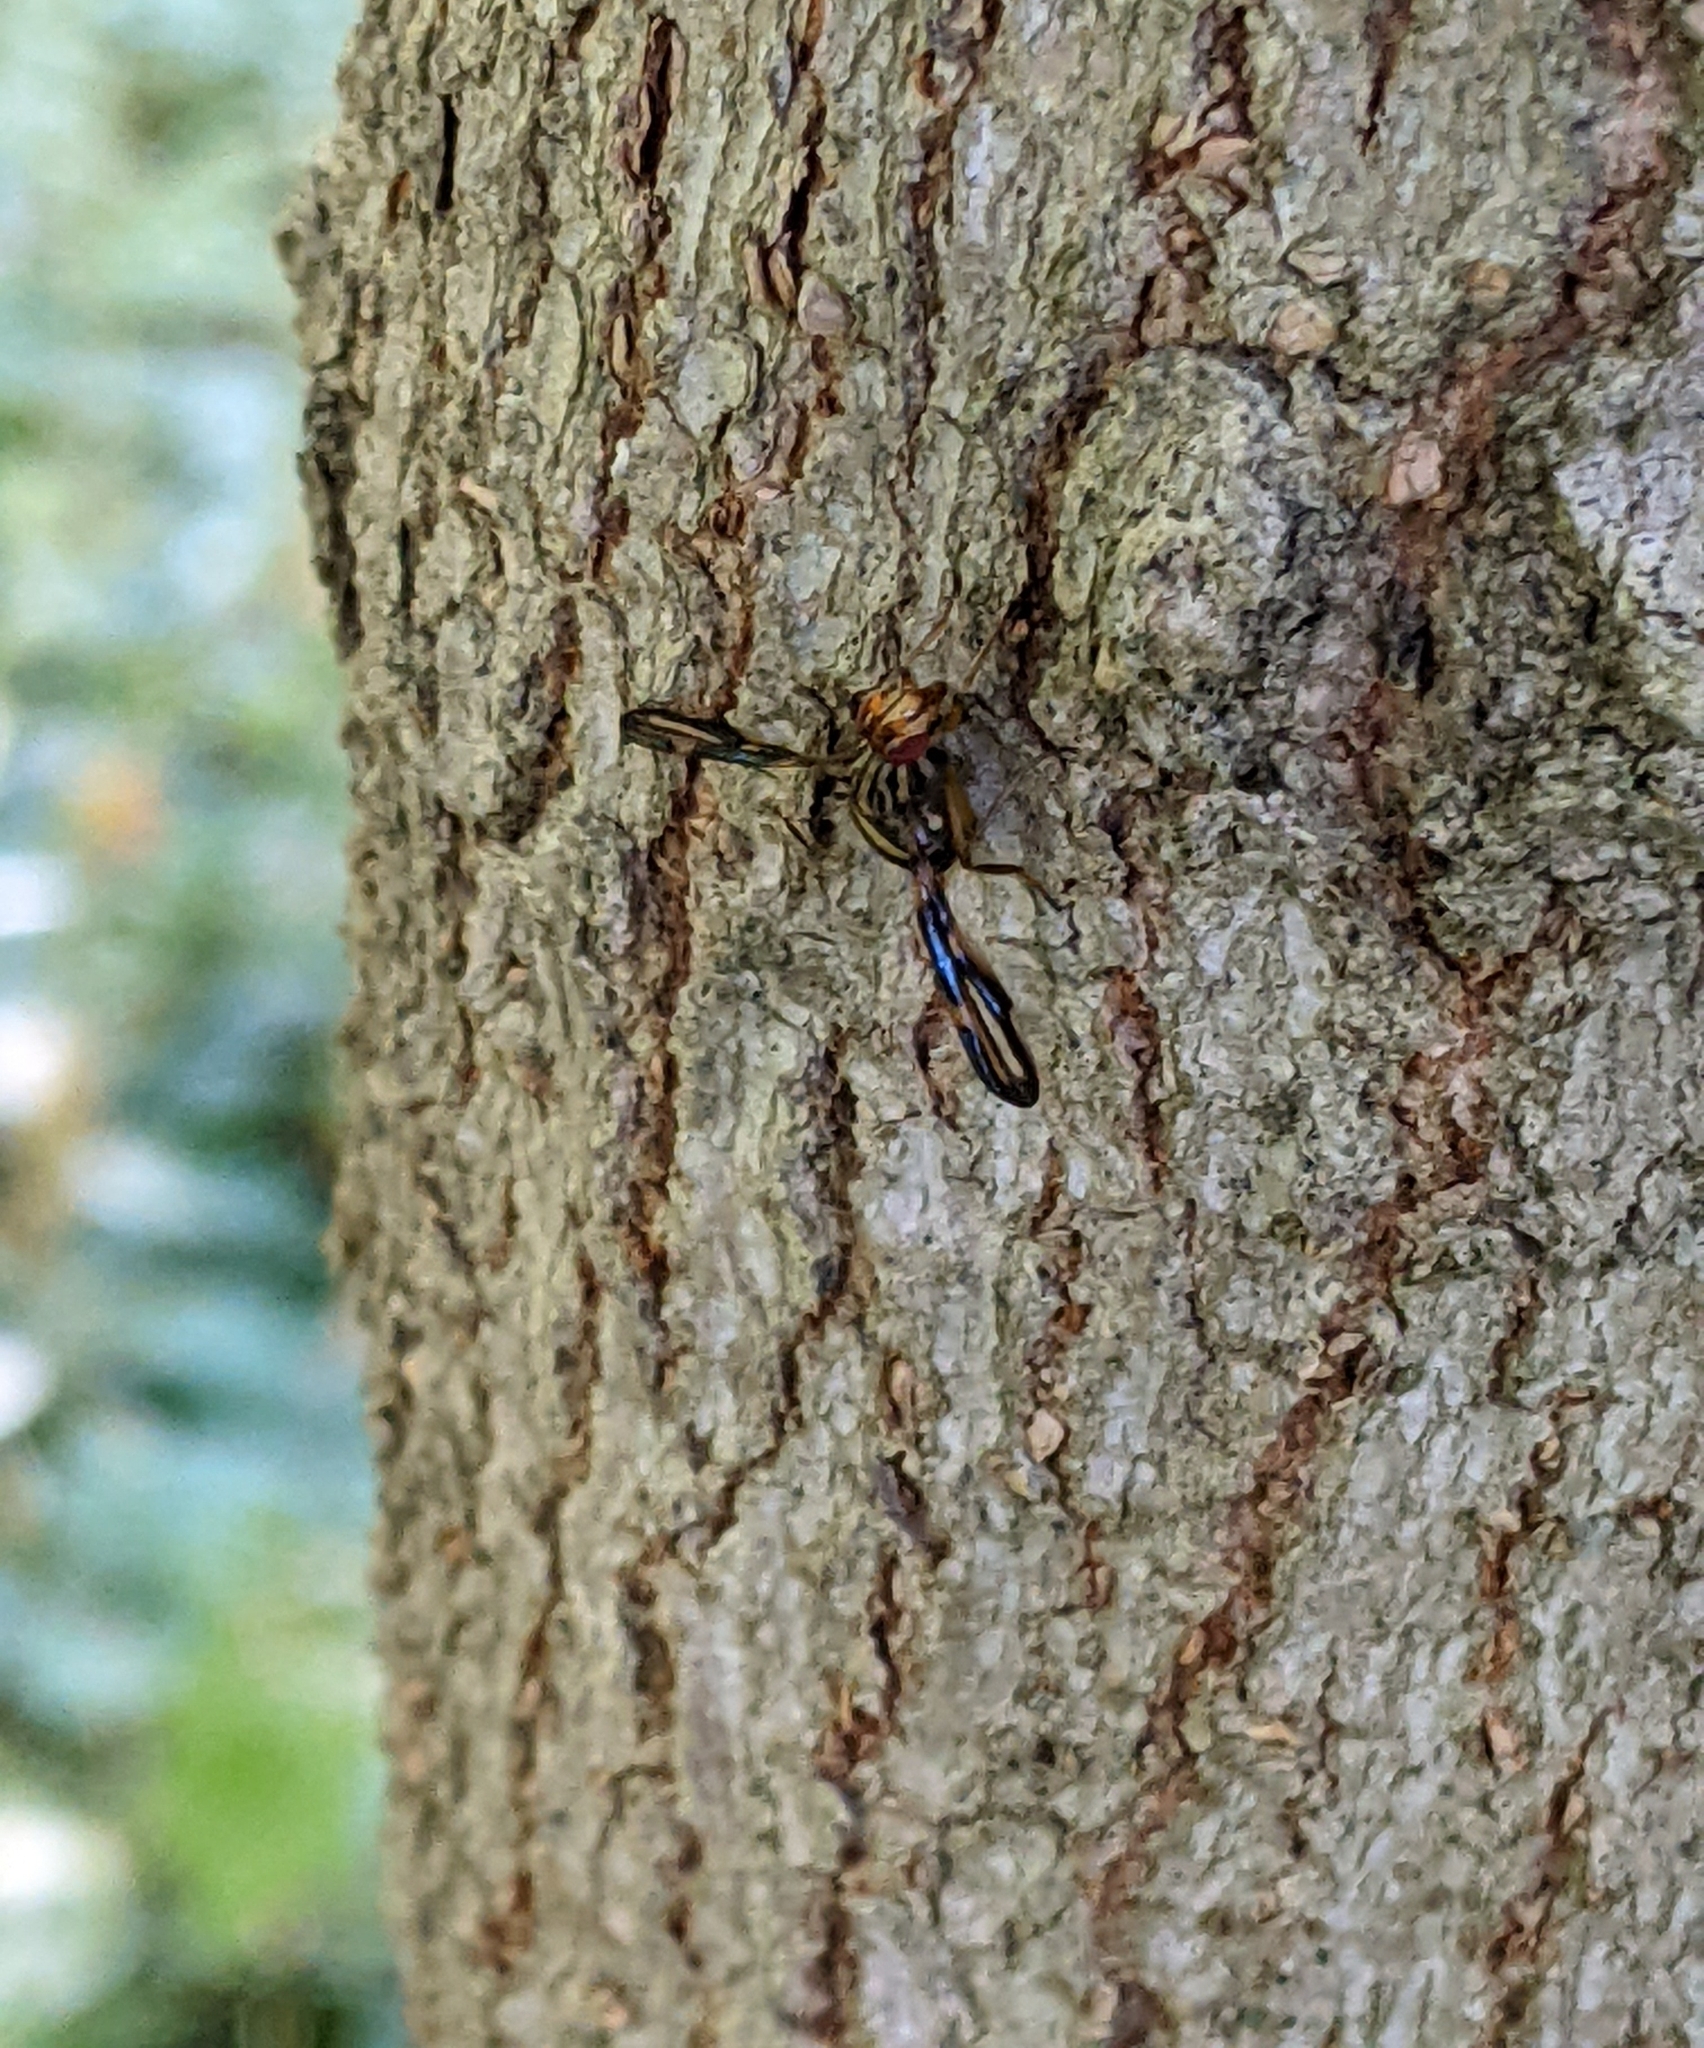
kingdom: Animalia
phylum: Arthropoda
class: Insecta
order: Diptera
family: Ulidiidae
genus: Idana
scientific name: Idana marginata
